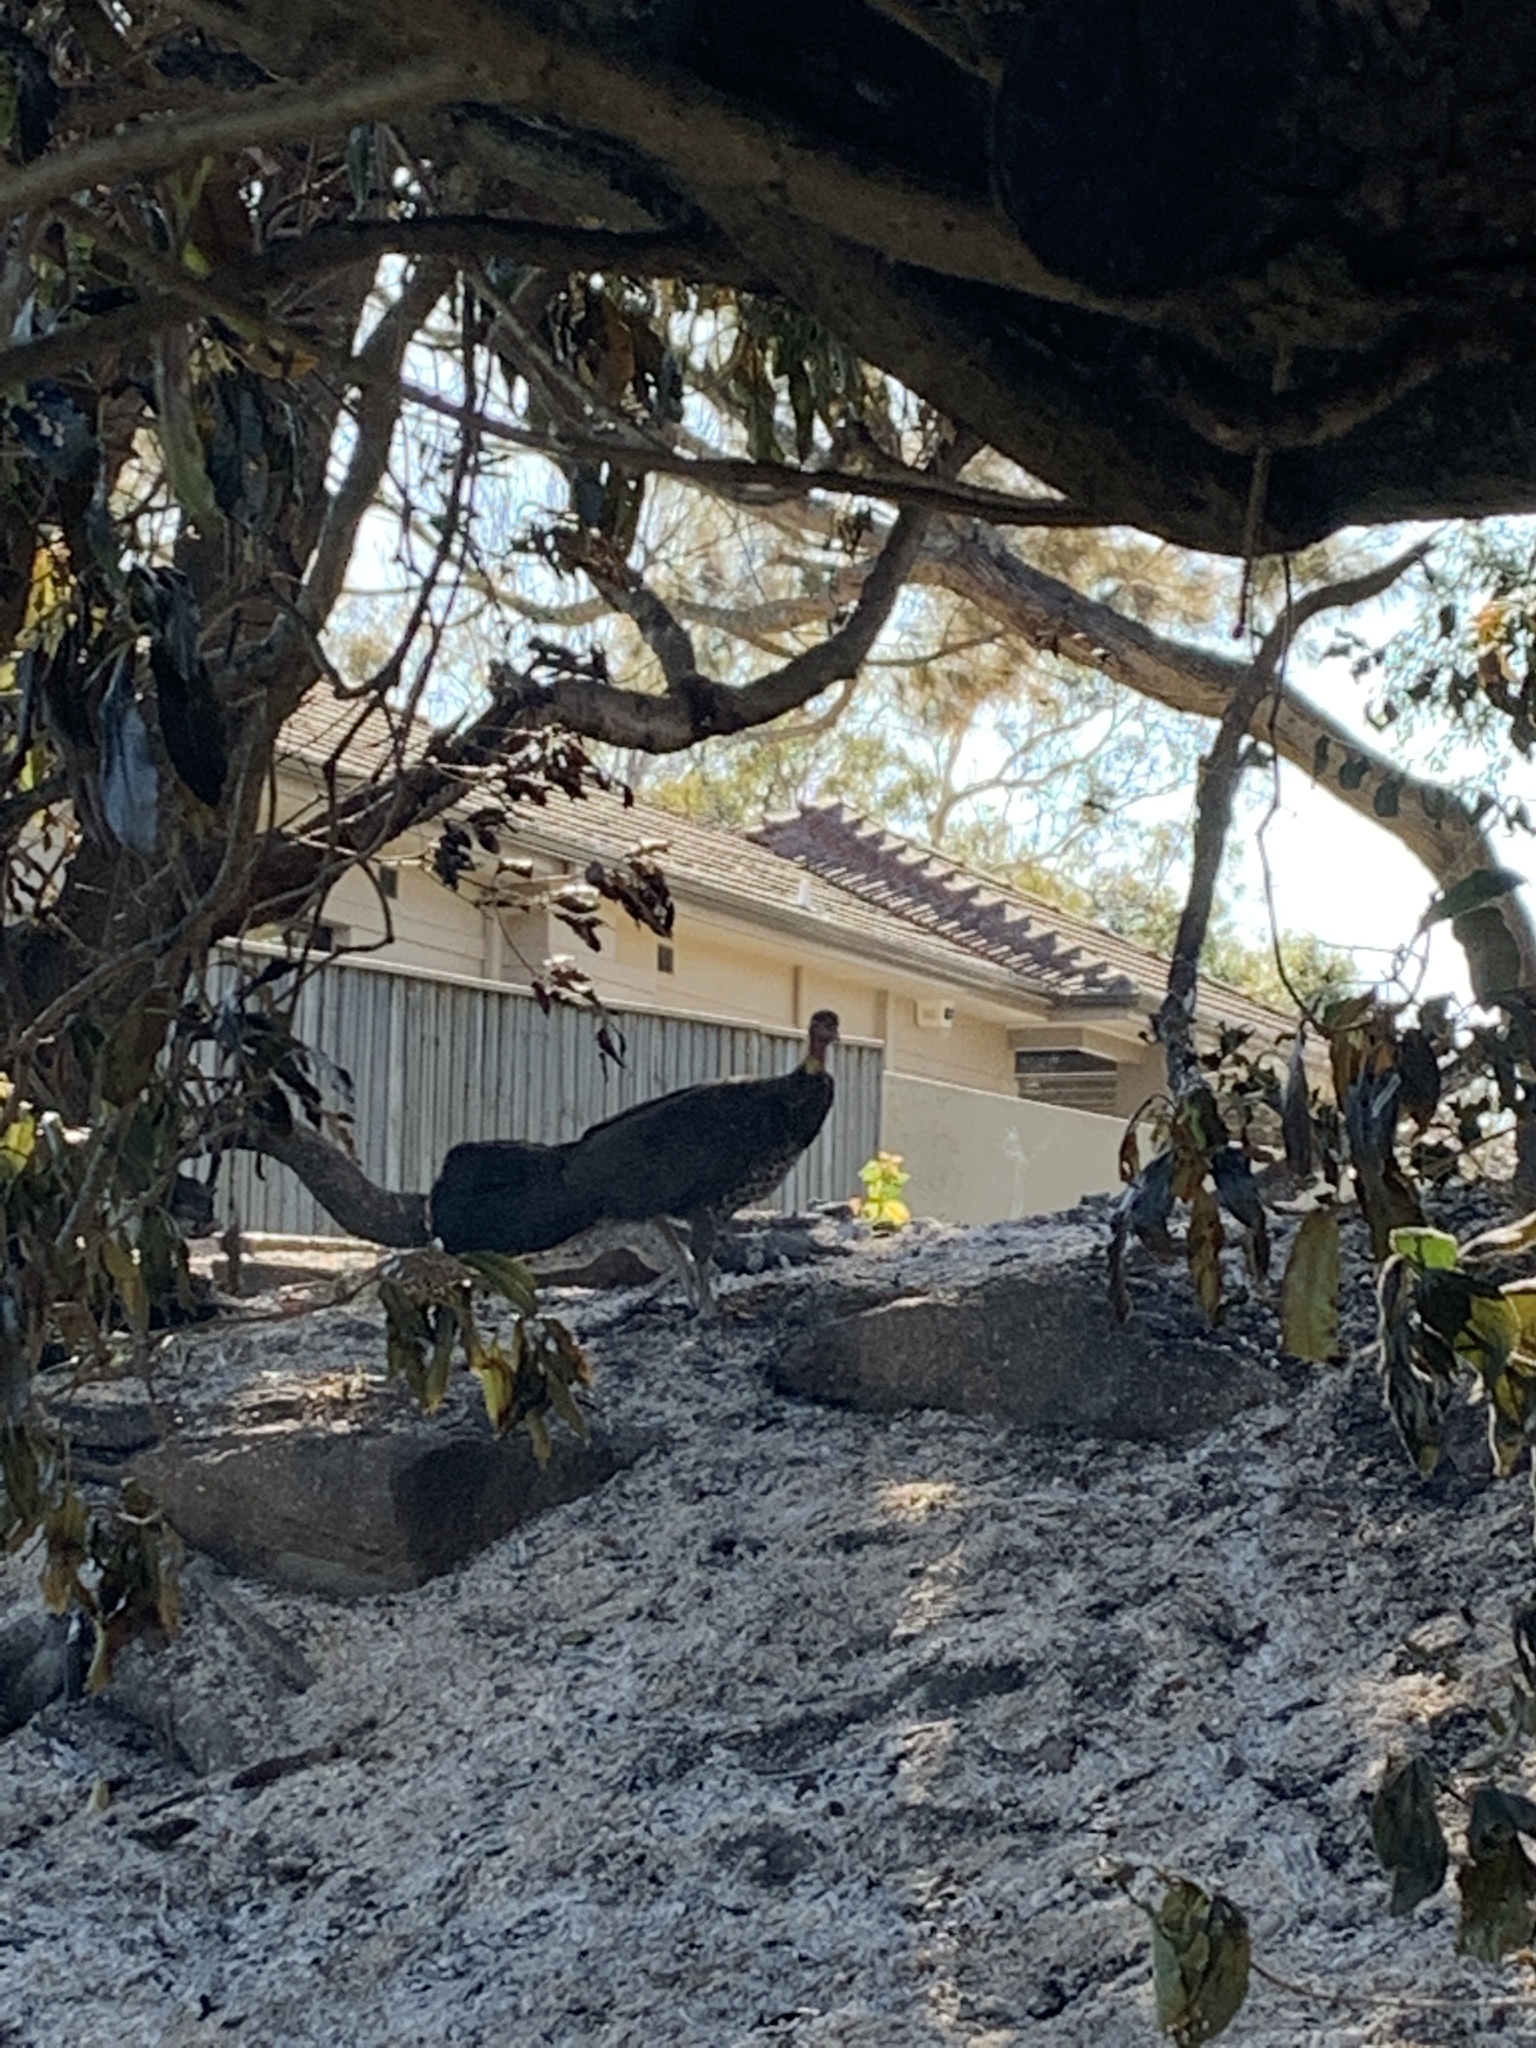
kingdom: Animalia
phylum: Chordata
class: Aves
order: Galliformes
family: Megapodiidae
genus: Alectura
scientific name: Alectura lathami
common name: Australian brushturkey
